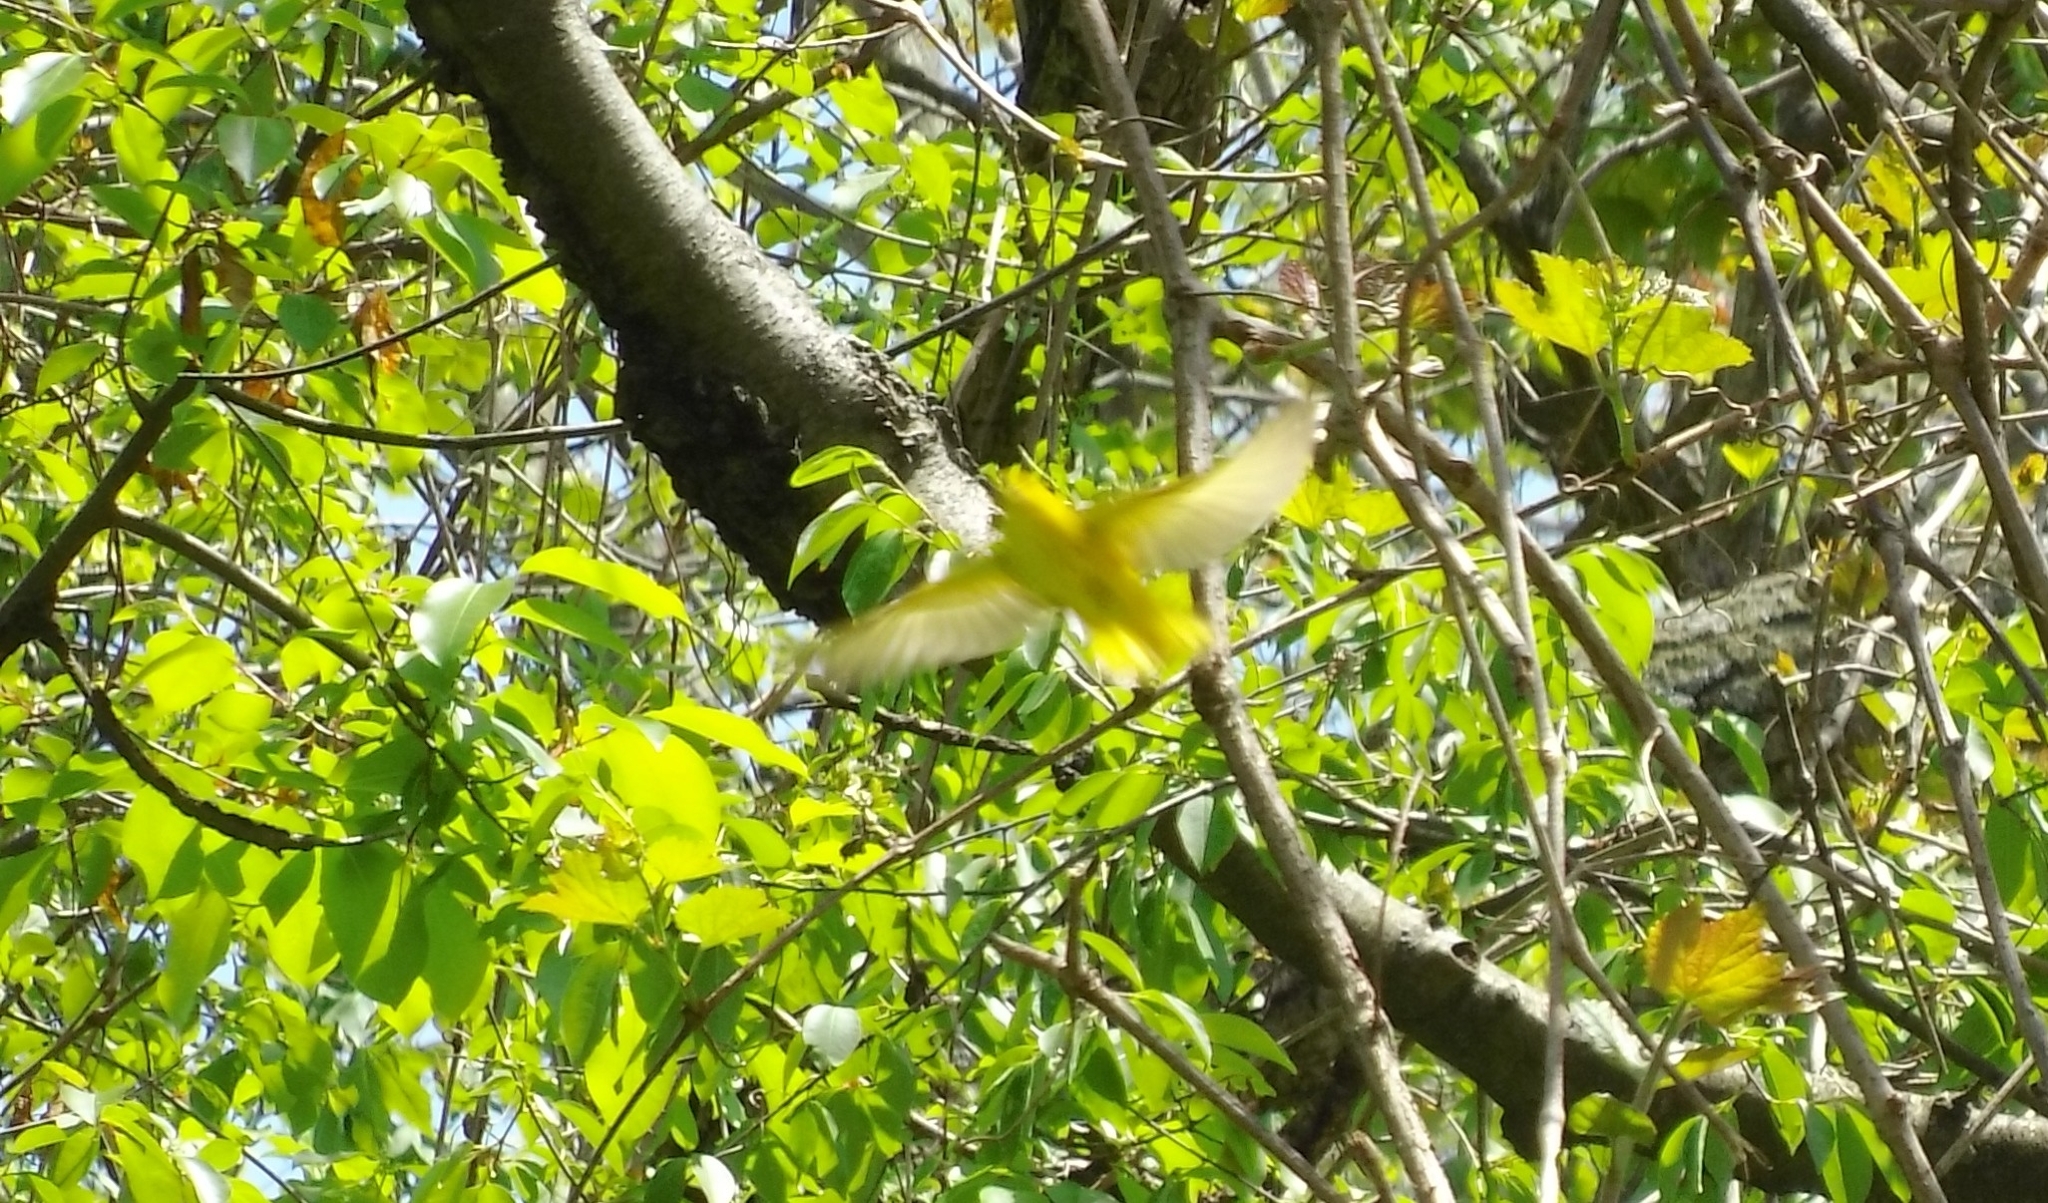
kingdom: Animalia
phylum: Chordata
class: Aves
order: Passeriformes
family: Parulidae
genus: Setophaga
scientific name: Setophaga petechia
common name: Yellow warbler
